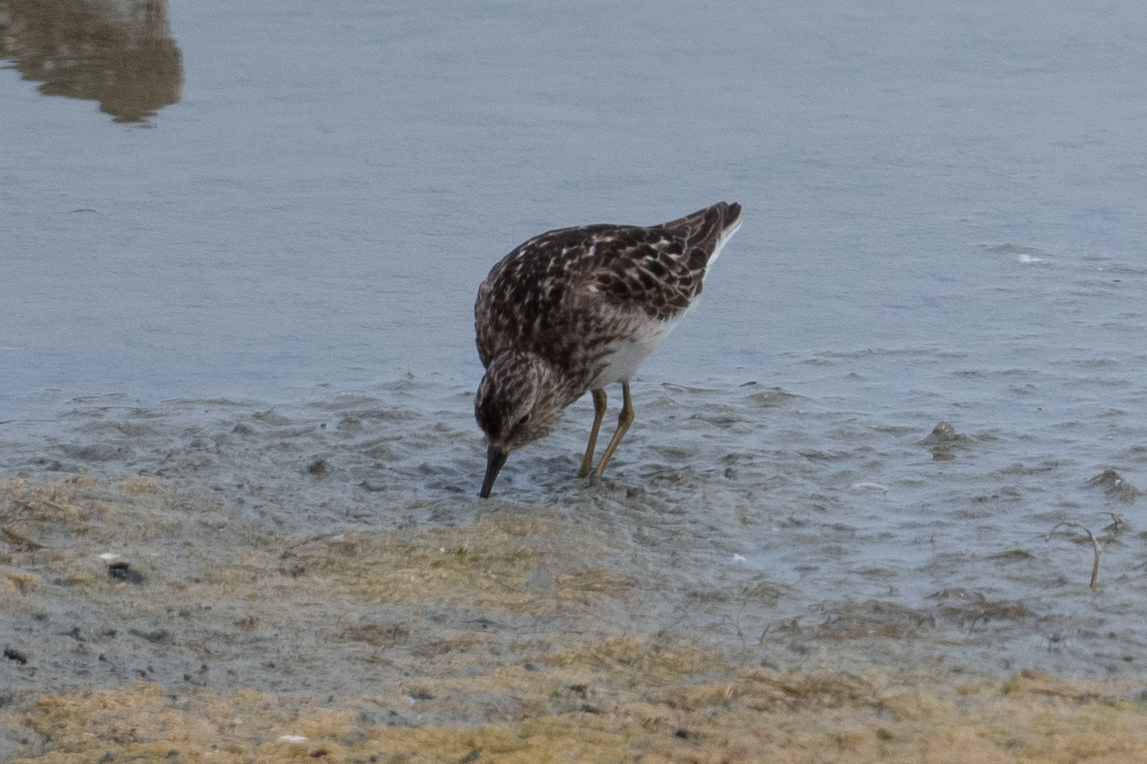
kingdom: Animalia
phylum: Chordata
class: Aves
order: Charadriiformes
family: Scolopacidae
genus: Calidris
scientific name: Calidris minutilla
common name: Least sandpiper
